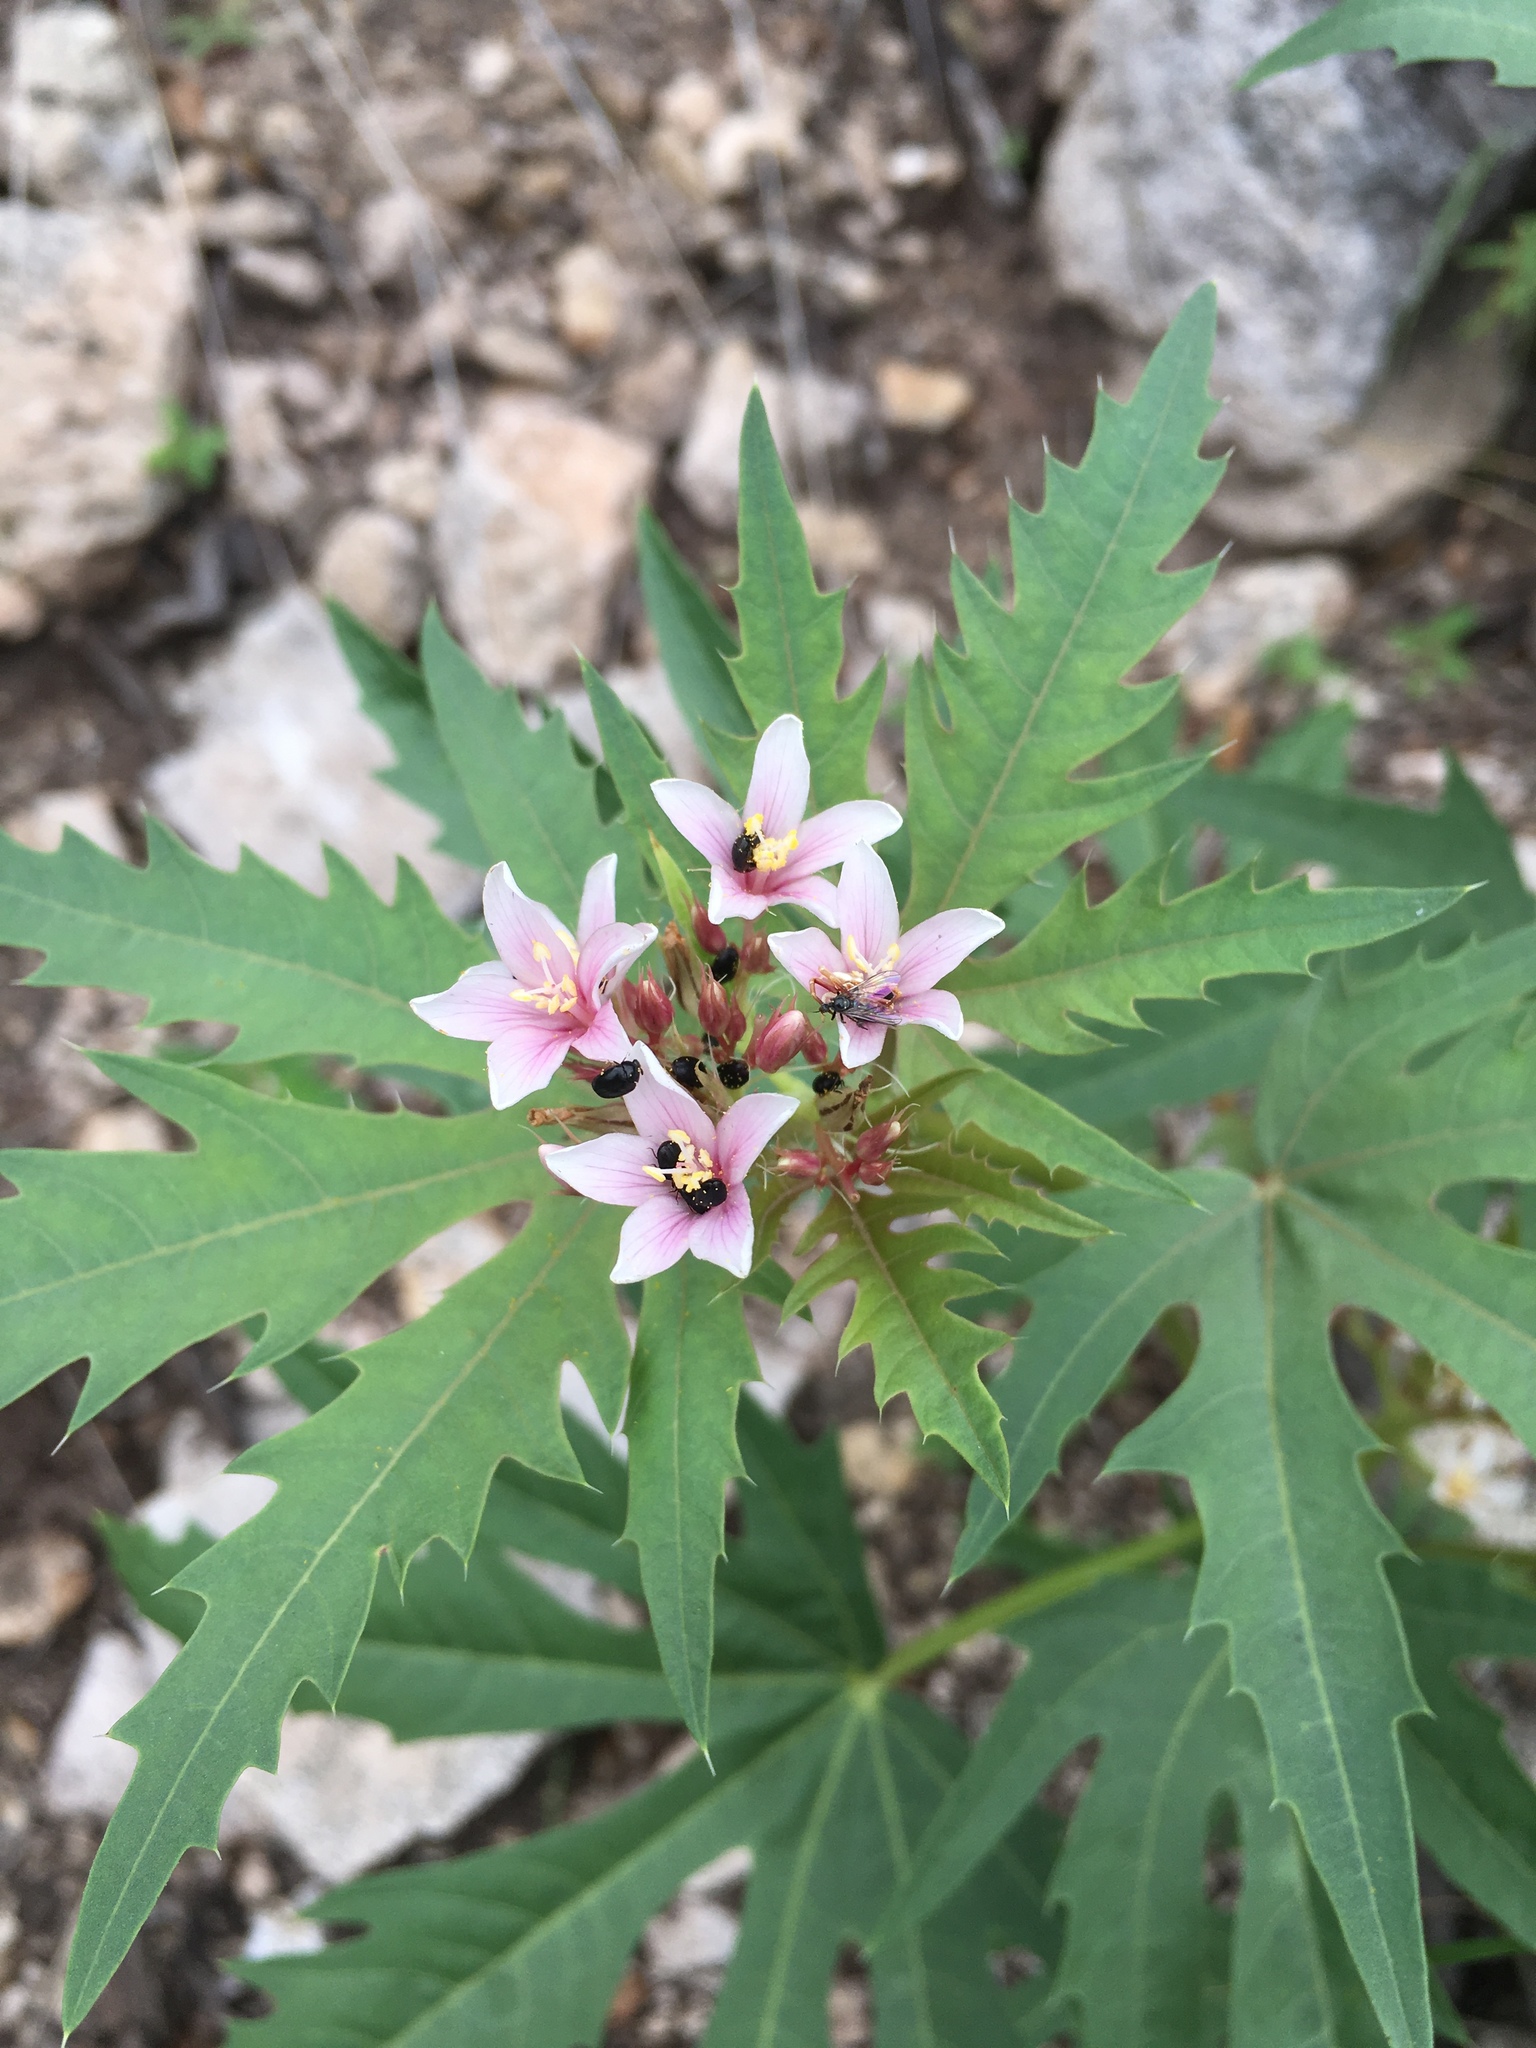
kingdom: Plantae
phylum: Tracheophyta
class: Magnoliopsida
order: Malpighiales
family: Euphorbiaceae
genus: Jatropha
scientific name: Jatropha macrorhiza
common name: Ragged nettlespurge
